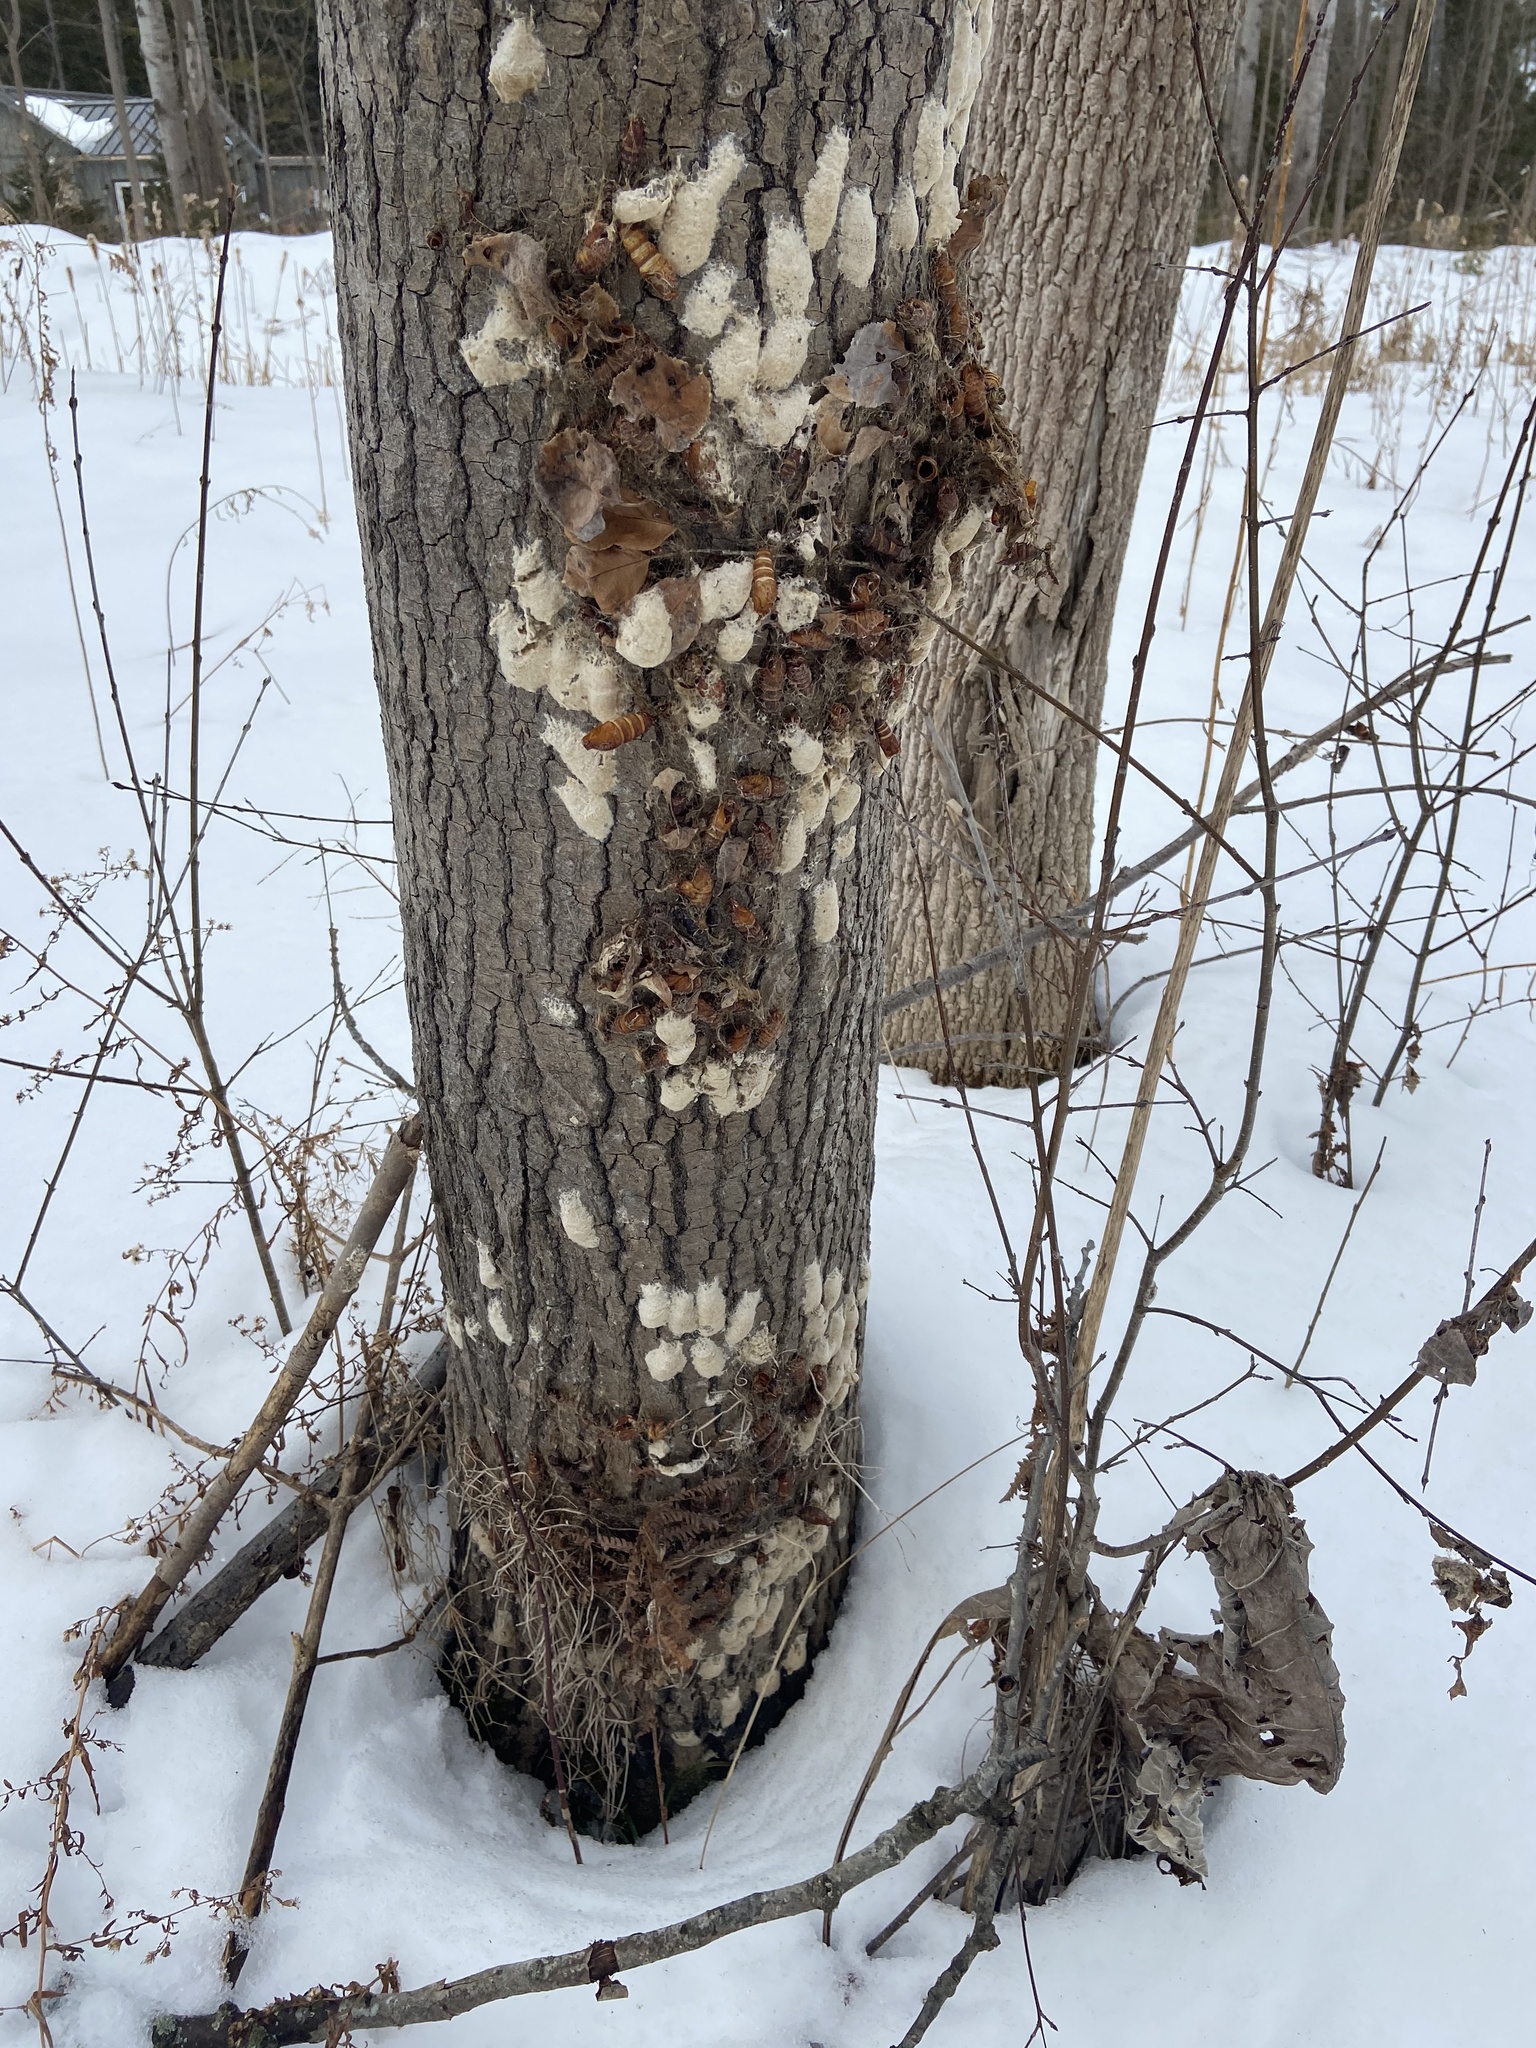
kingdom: Animalia
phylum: Arthropoda
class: Insecta
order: Lepidoptera
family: Erebidae
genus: Lymantria
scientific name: Lymantria dispar
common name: Gypsy moth
